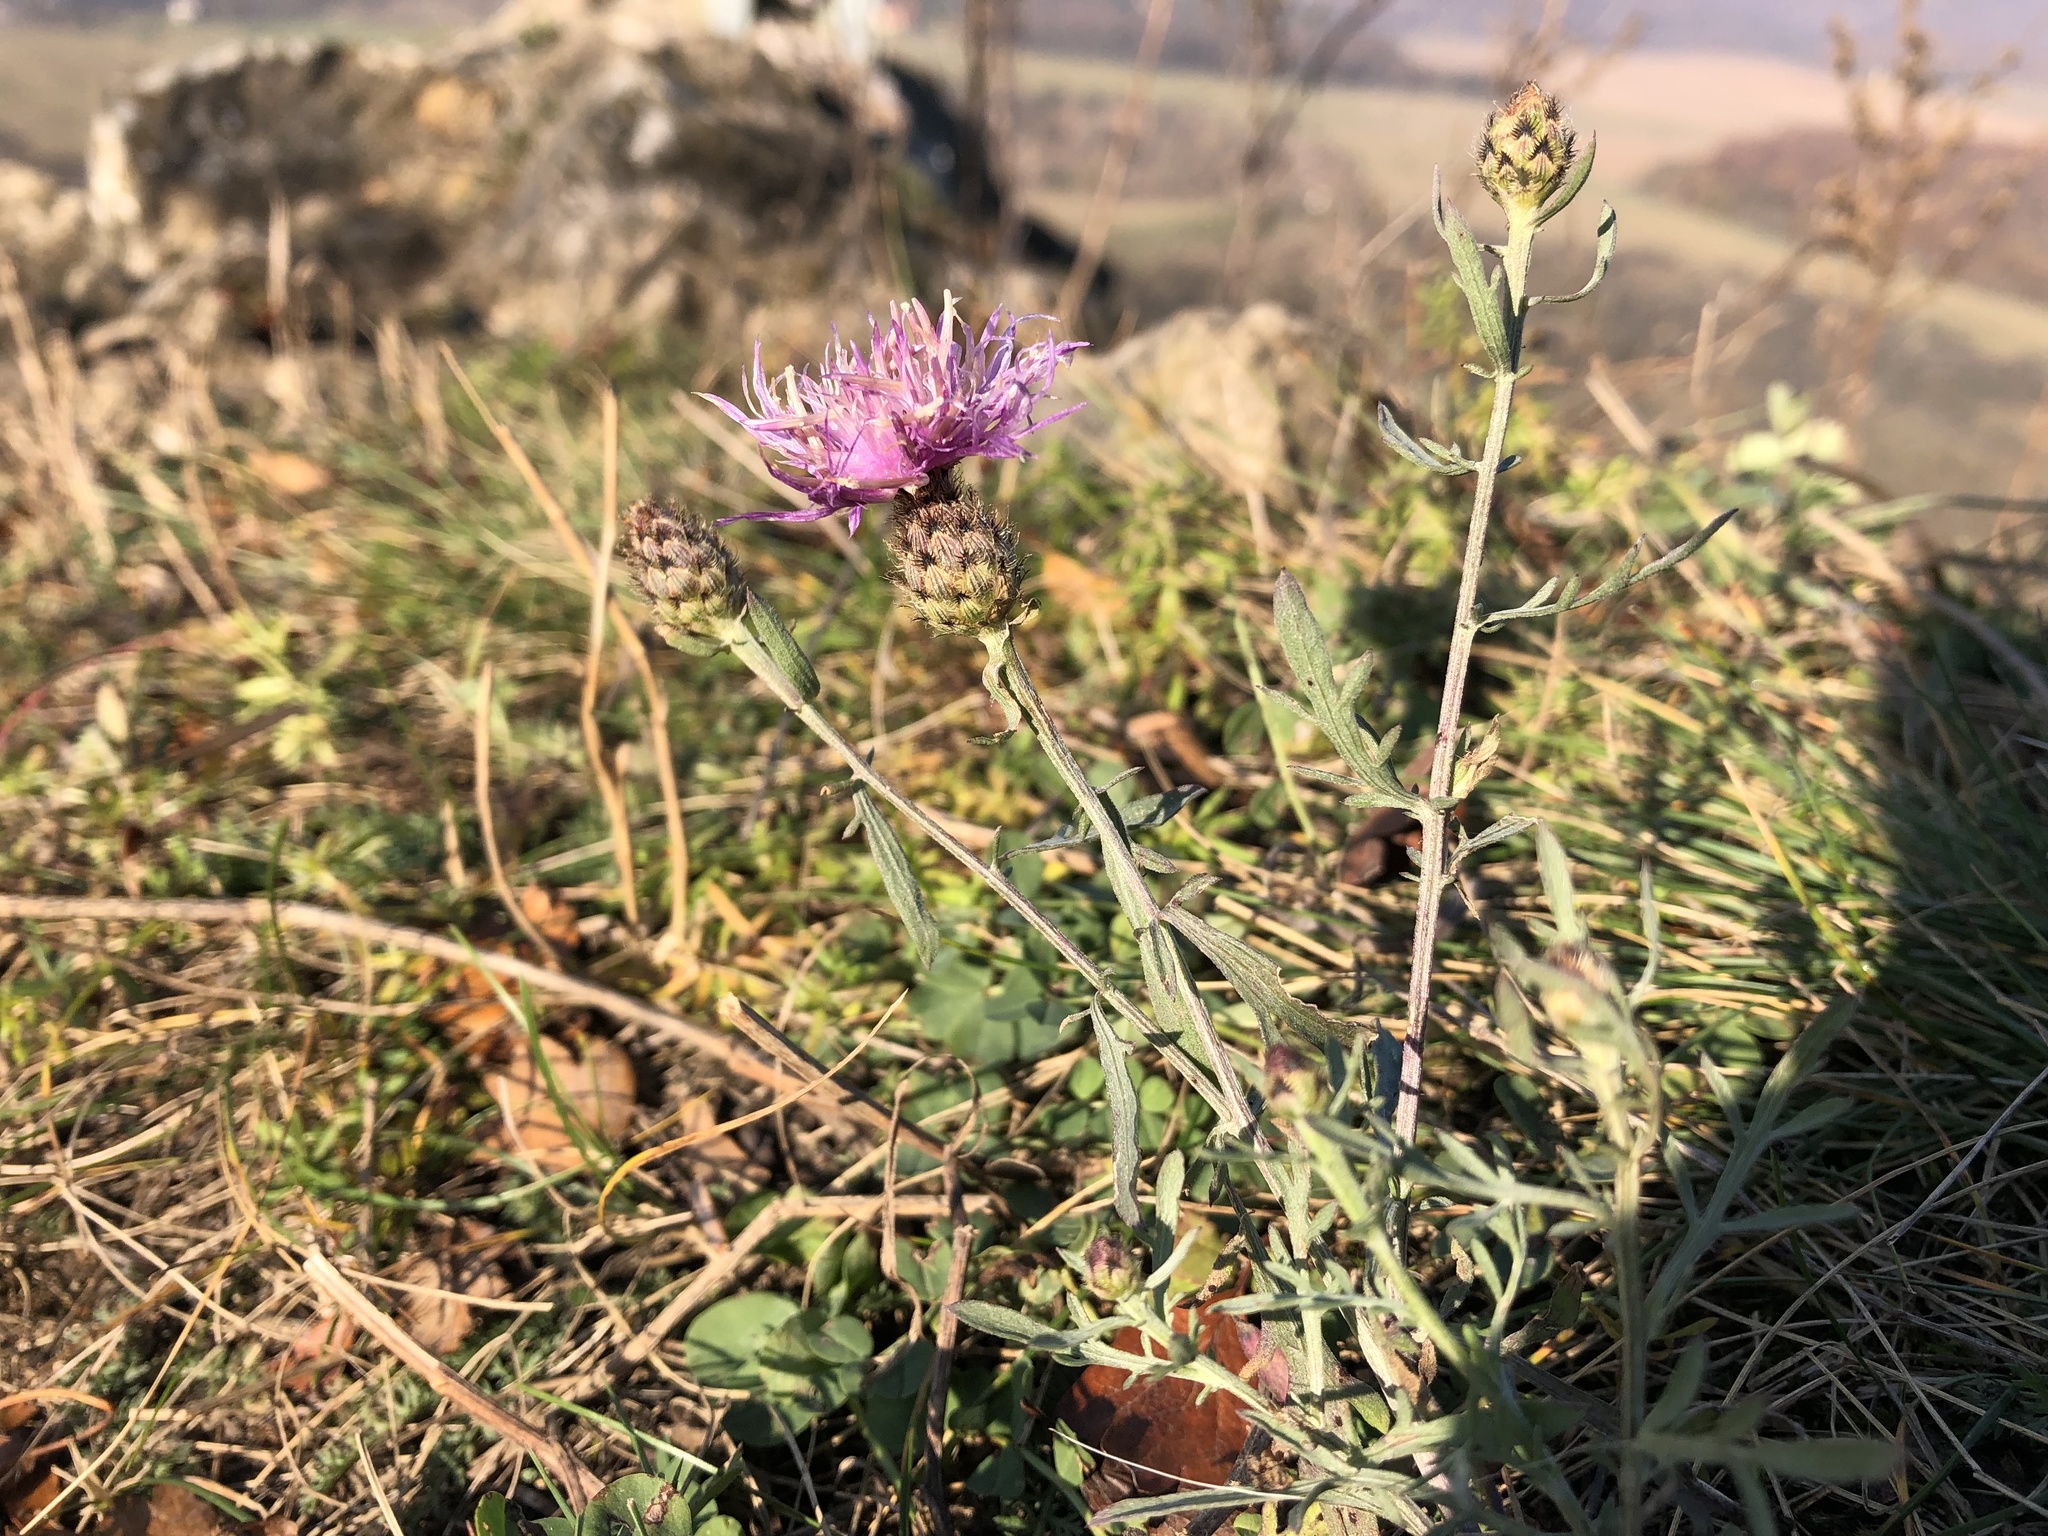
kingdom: Plantae
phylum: Tracheophyta
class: Magnoliopsida
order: Asterales
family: Asteraceae
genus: Centaurea
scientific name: Centaurea stoebe
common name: Spotted knapweed
